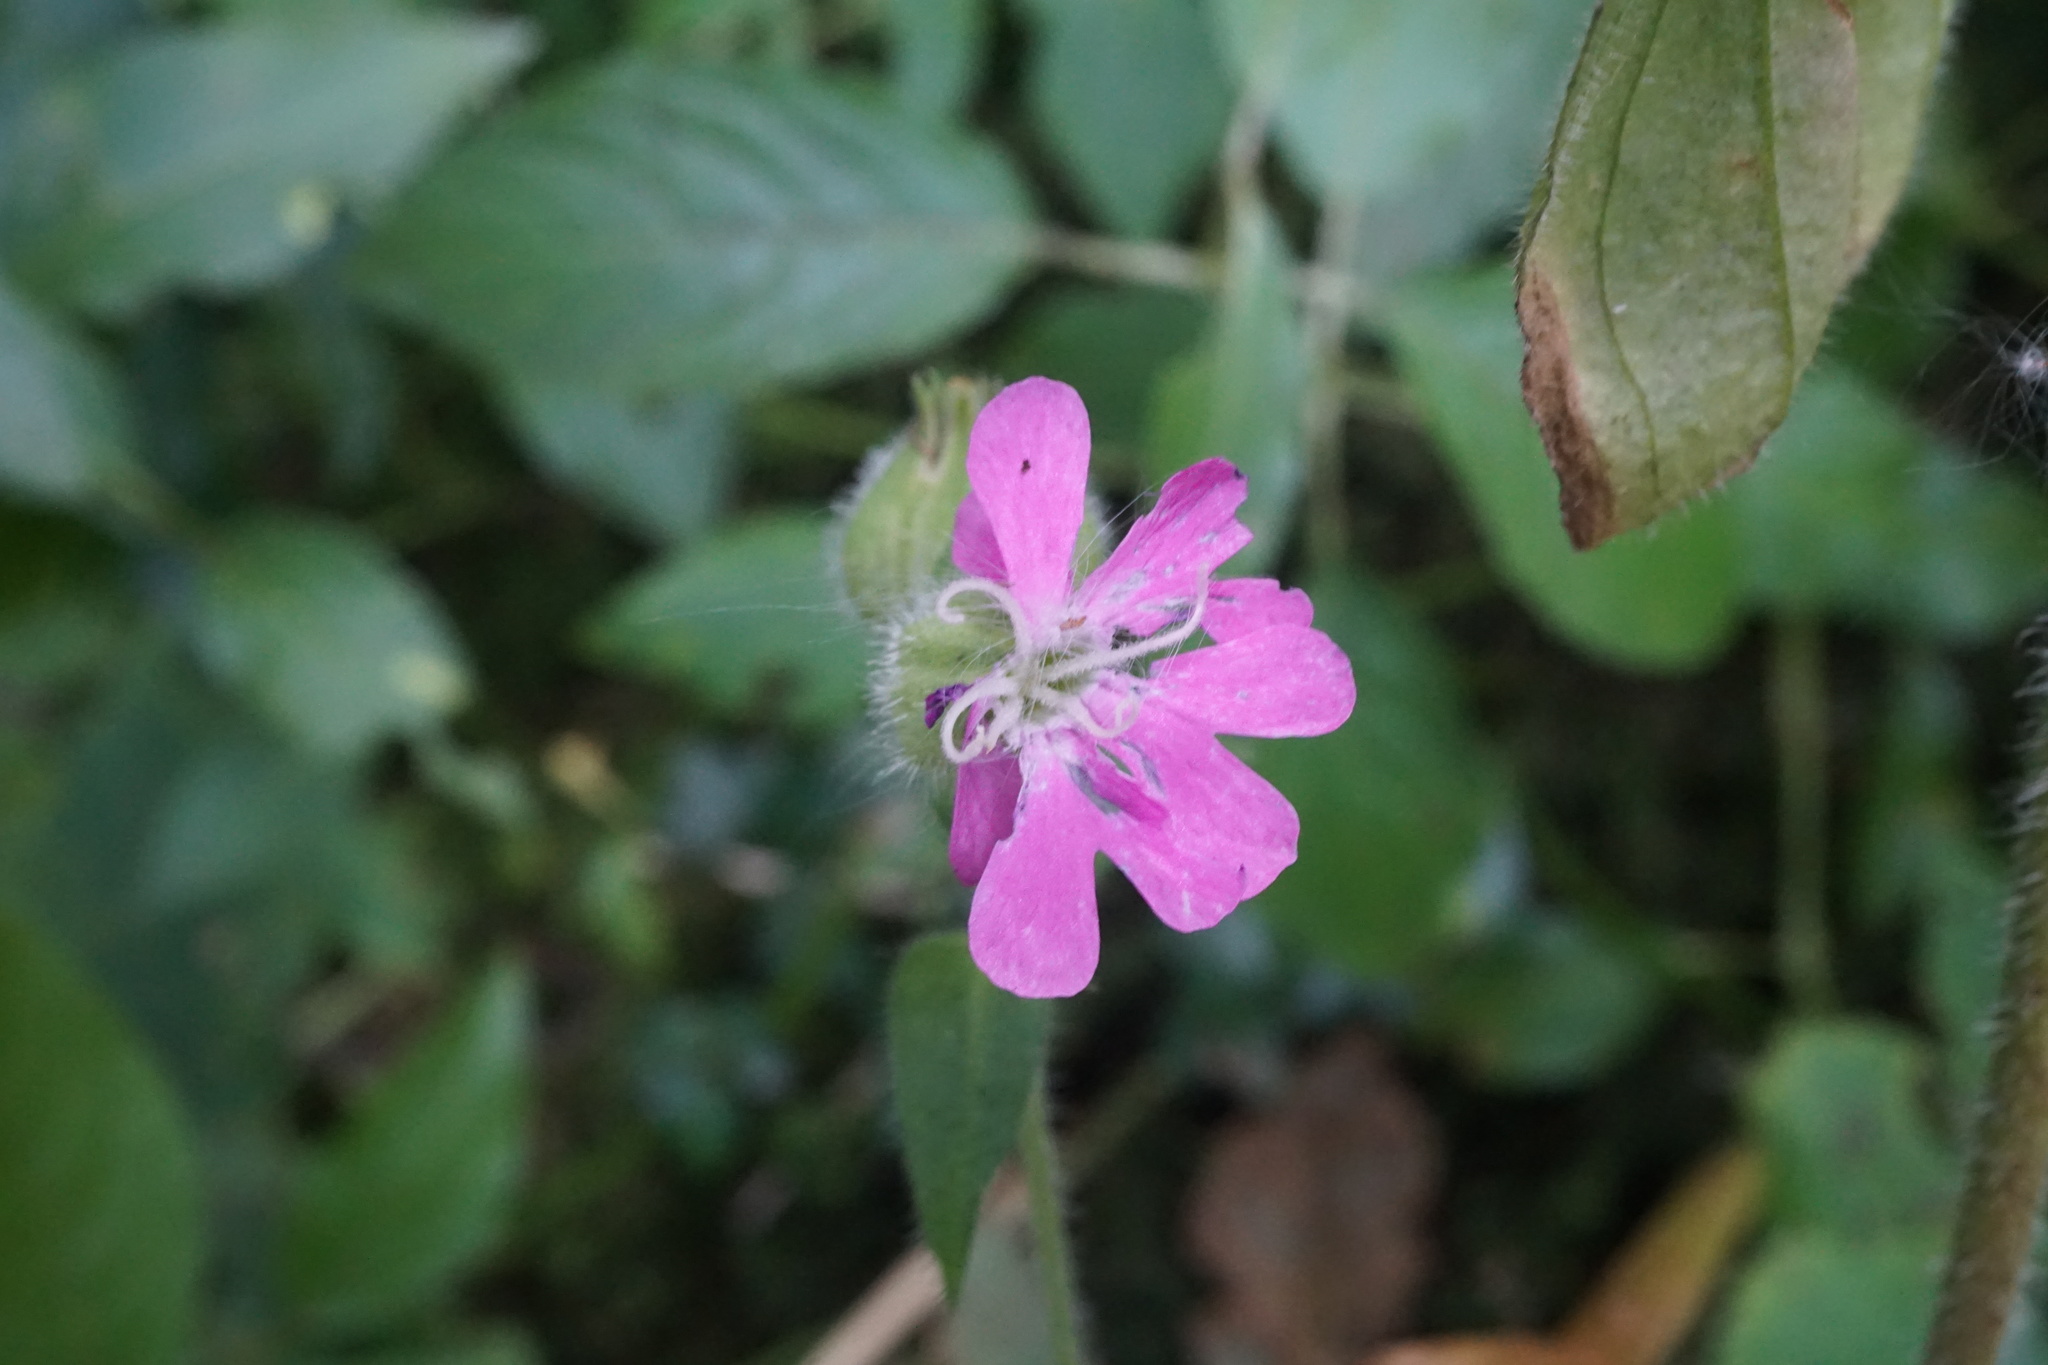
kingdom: Plantae
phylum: Tracheophyta
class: Magnoliopsida
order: Caryophyllales
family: Caryophyllaceae
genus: Silene
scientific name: Silene dioica
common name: Red campion
